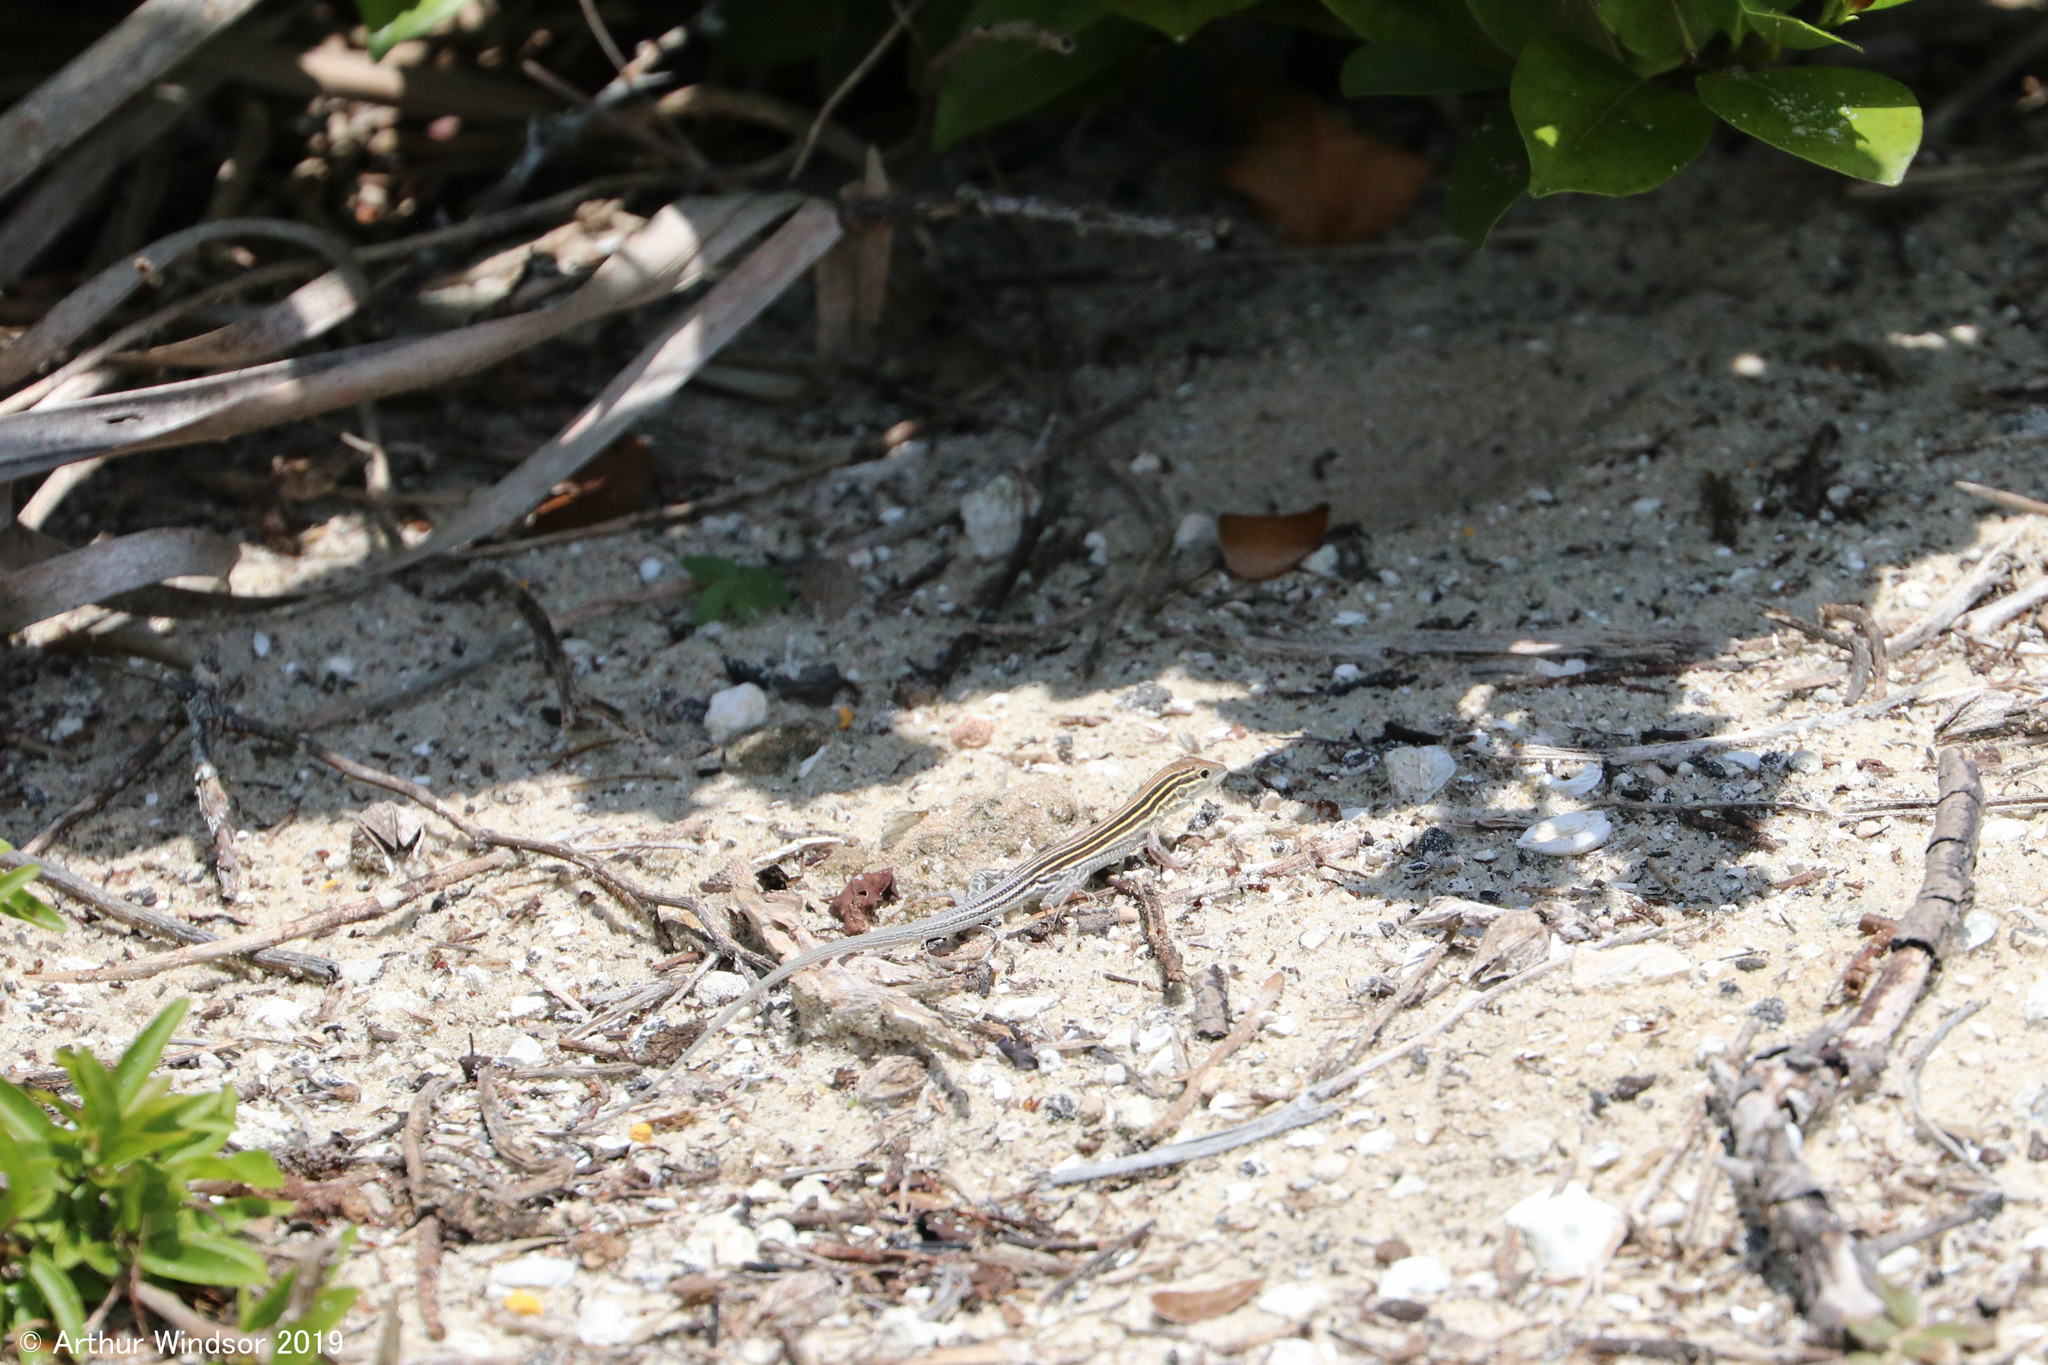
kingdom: Animalia
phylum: Chordata
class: Squamata
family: Teiidae
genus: Aspidoscelis
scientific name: Aspidoscelis sexlineatus
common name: Six-lined racerunner
